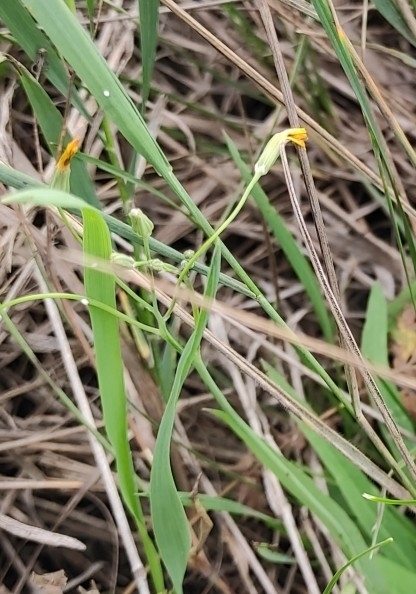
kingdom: Plantae
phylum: Tracheophyta
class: Magnoliopsida
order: Asterales
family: Asteraceae
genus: Ixeris
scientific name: Ixeris chinensis
